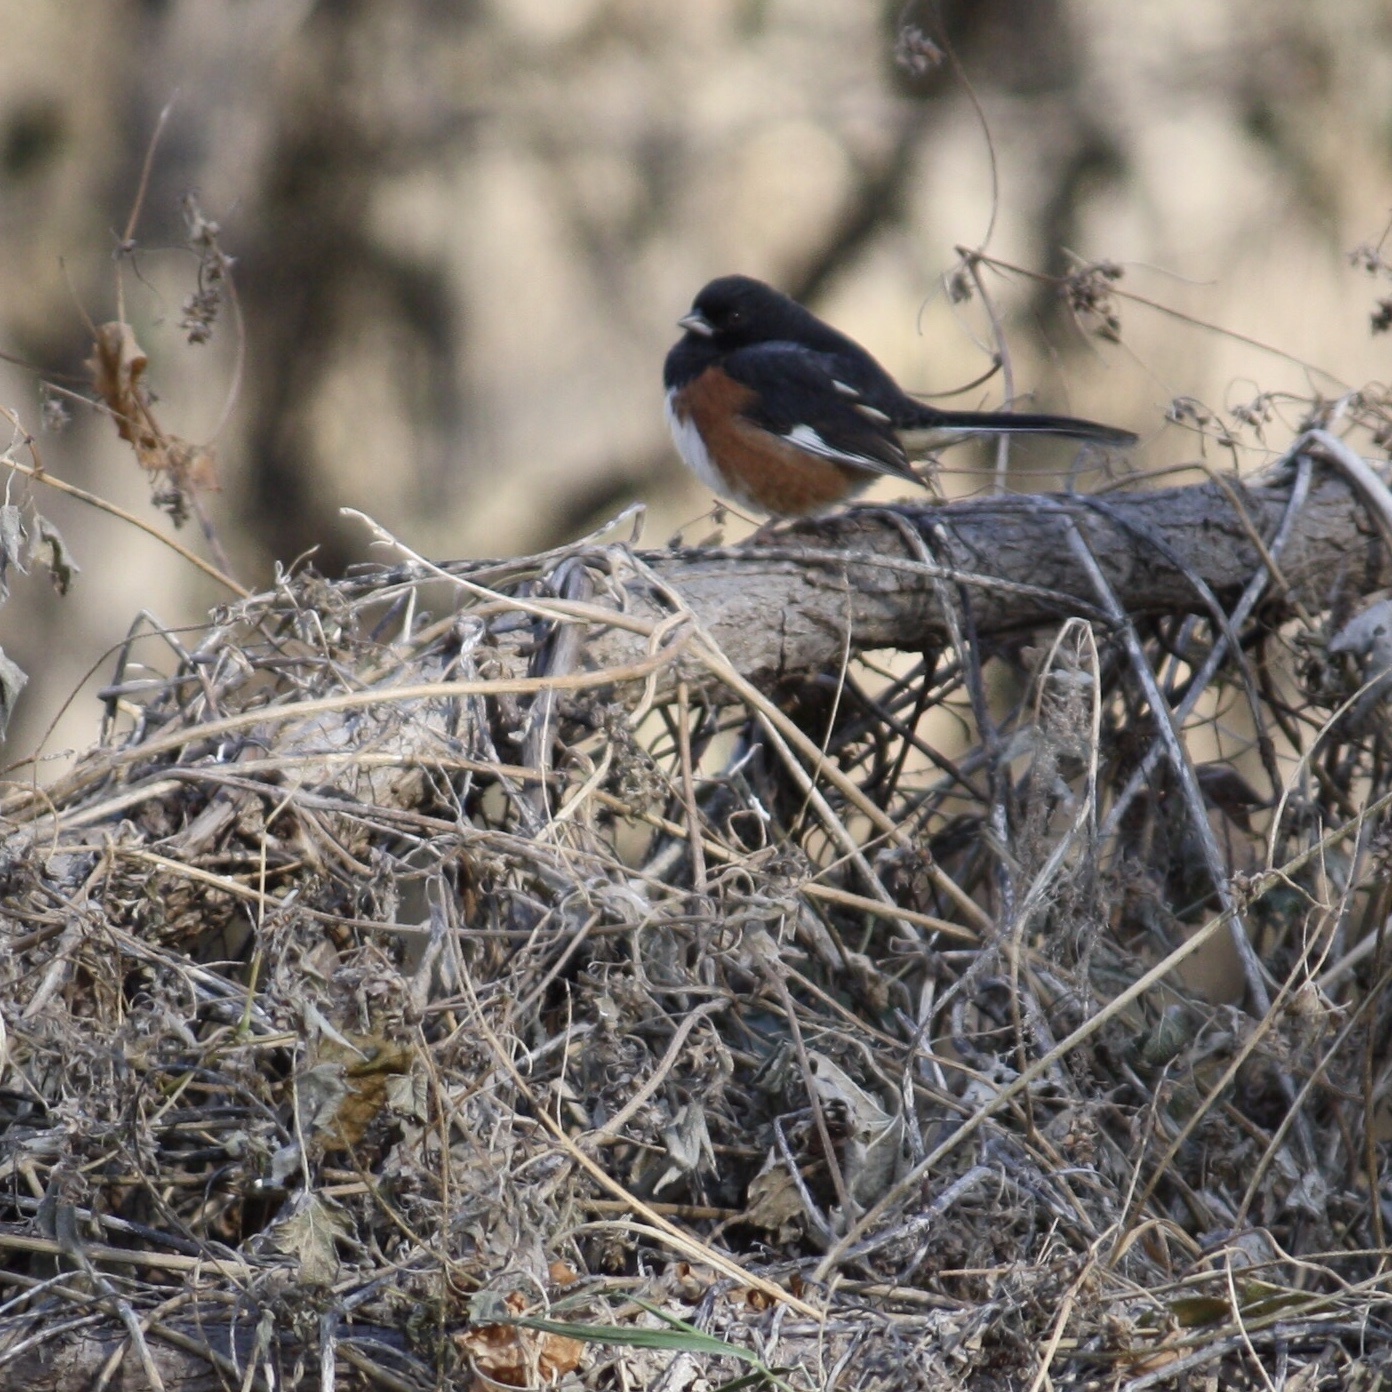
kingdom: Animalia
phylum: Chordata
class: Aves
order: Passeriformes
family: Passerellidae
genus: Pipilo
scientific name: Pipilo erythrophthalmus
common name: Eastern towhee
